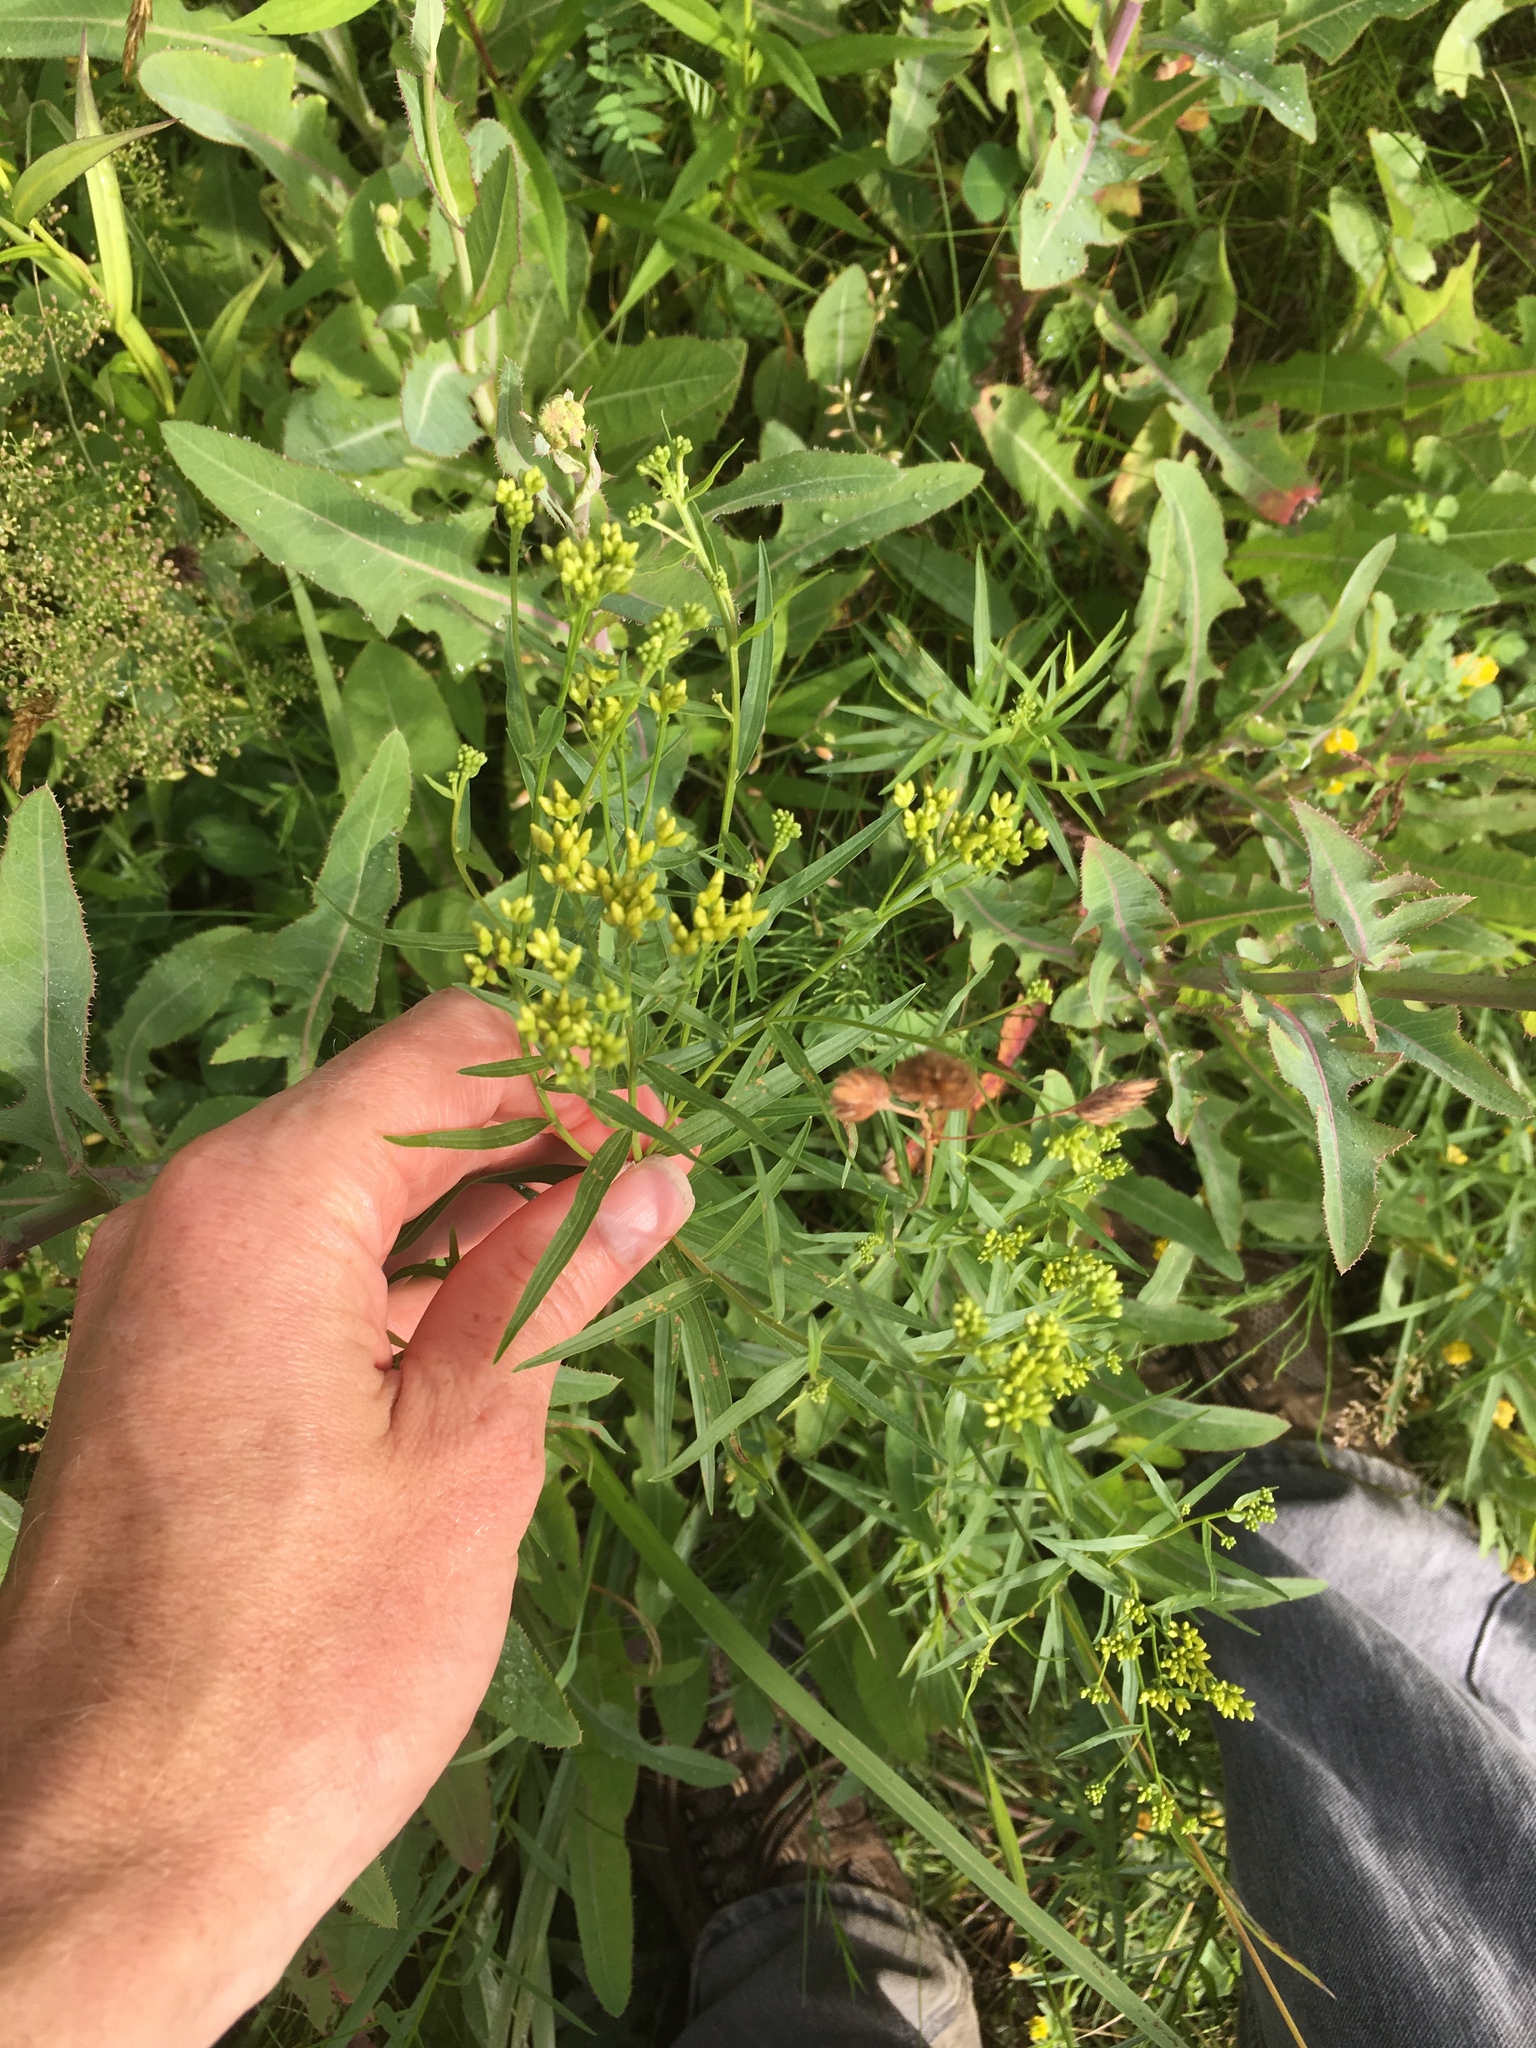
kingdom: Plantae
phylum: Tracheophyta
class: Magnoliopsida
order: Asterales
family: Asteraceae
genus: Euthamia
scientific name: Euthamia graminifolia
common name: Common goldentop
